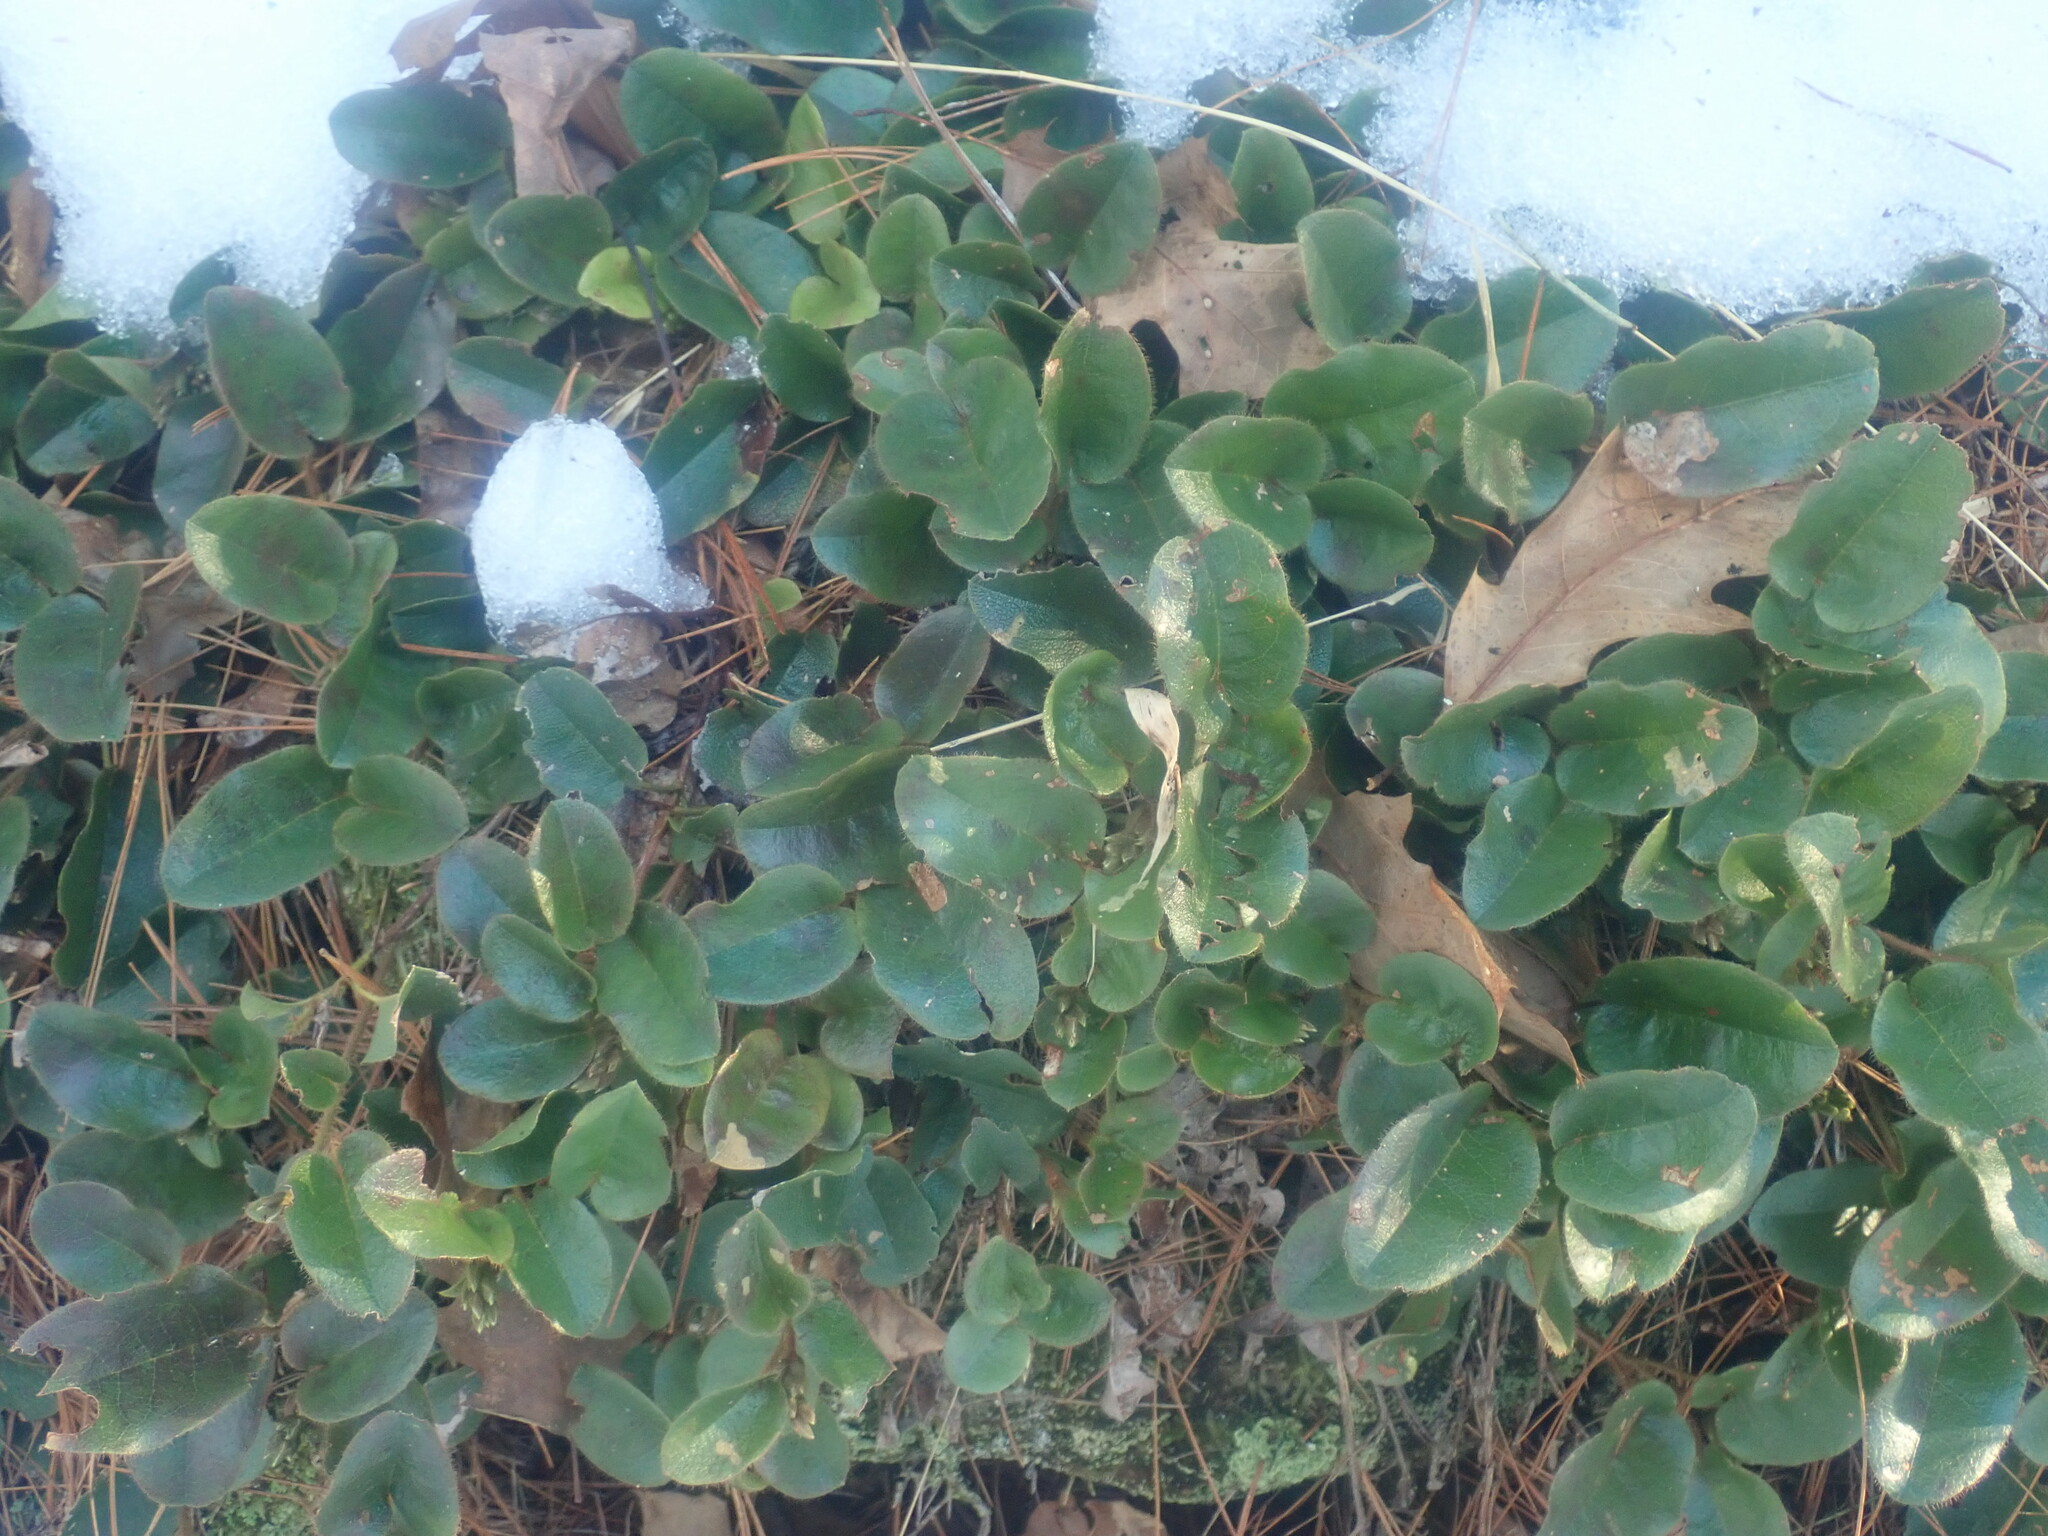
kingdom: Plantae
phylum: Tracheophyta
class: Magnoliopsida
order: Ericales
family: Ericaceae
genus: Epigaea
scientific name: Epigaea repens
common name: Gravelroot
